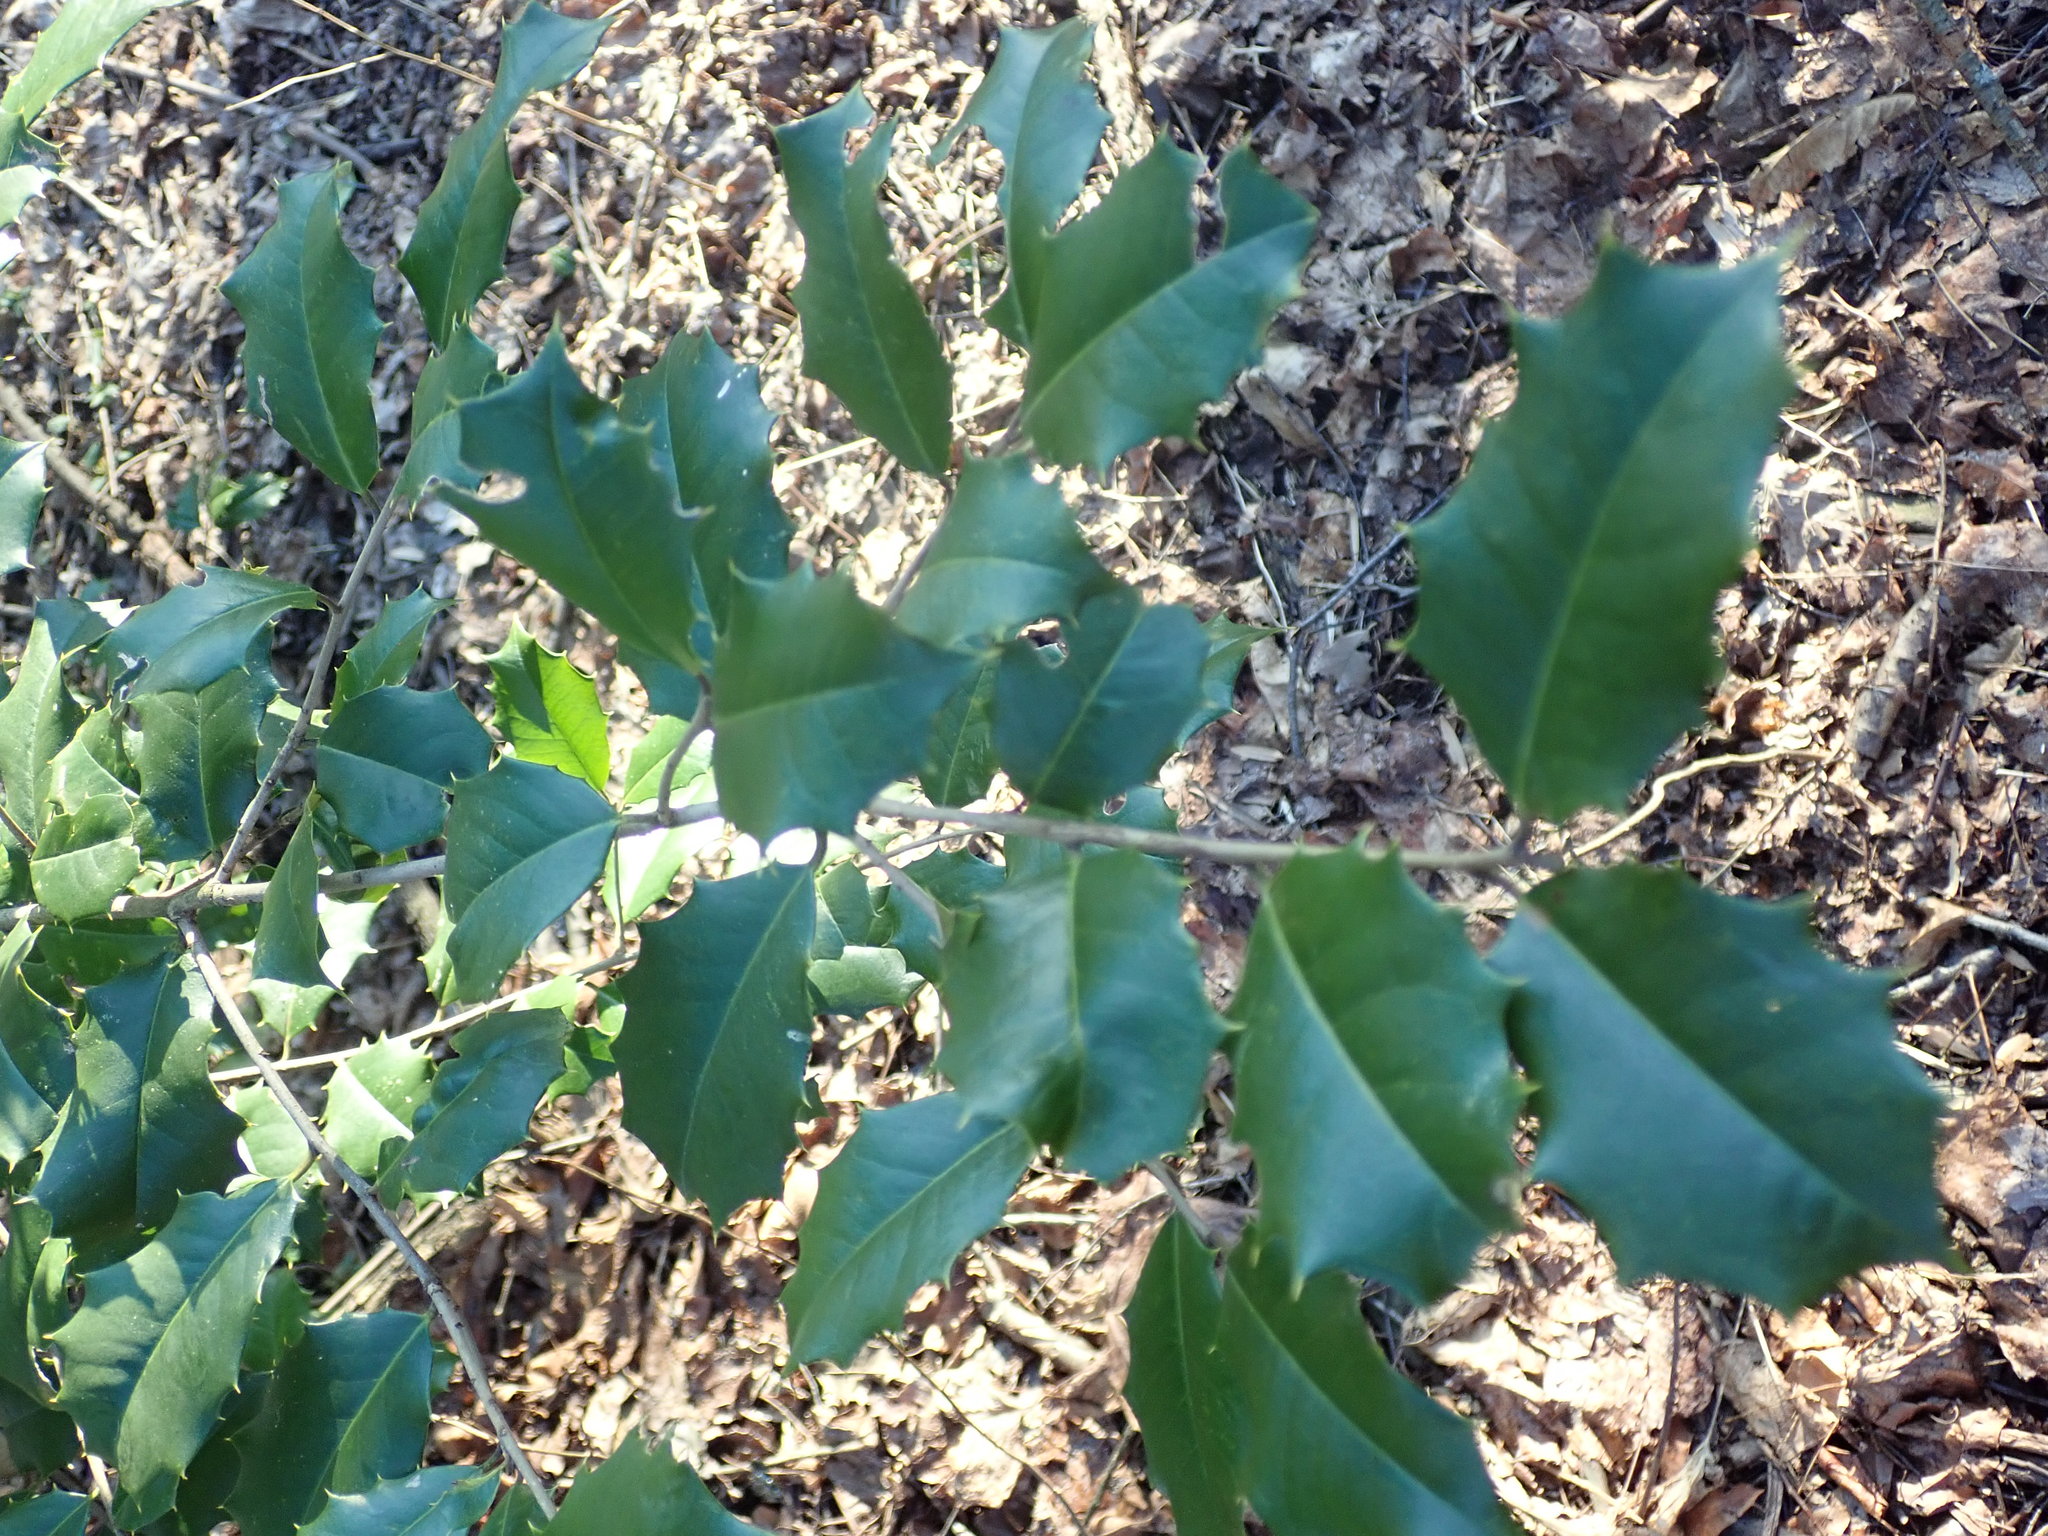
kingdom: Plantae
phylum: Tracheophyta
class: Magnoliopsida
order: Aquifoliales
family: Aquifoliaceae
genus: Ilex
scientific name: Ilex opaca
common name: American holly
